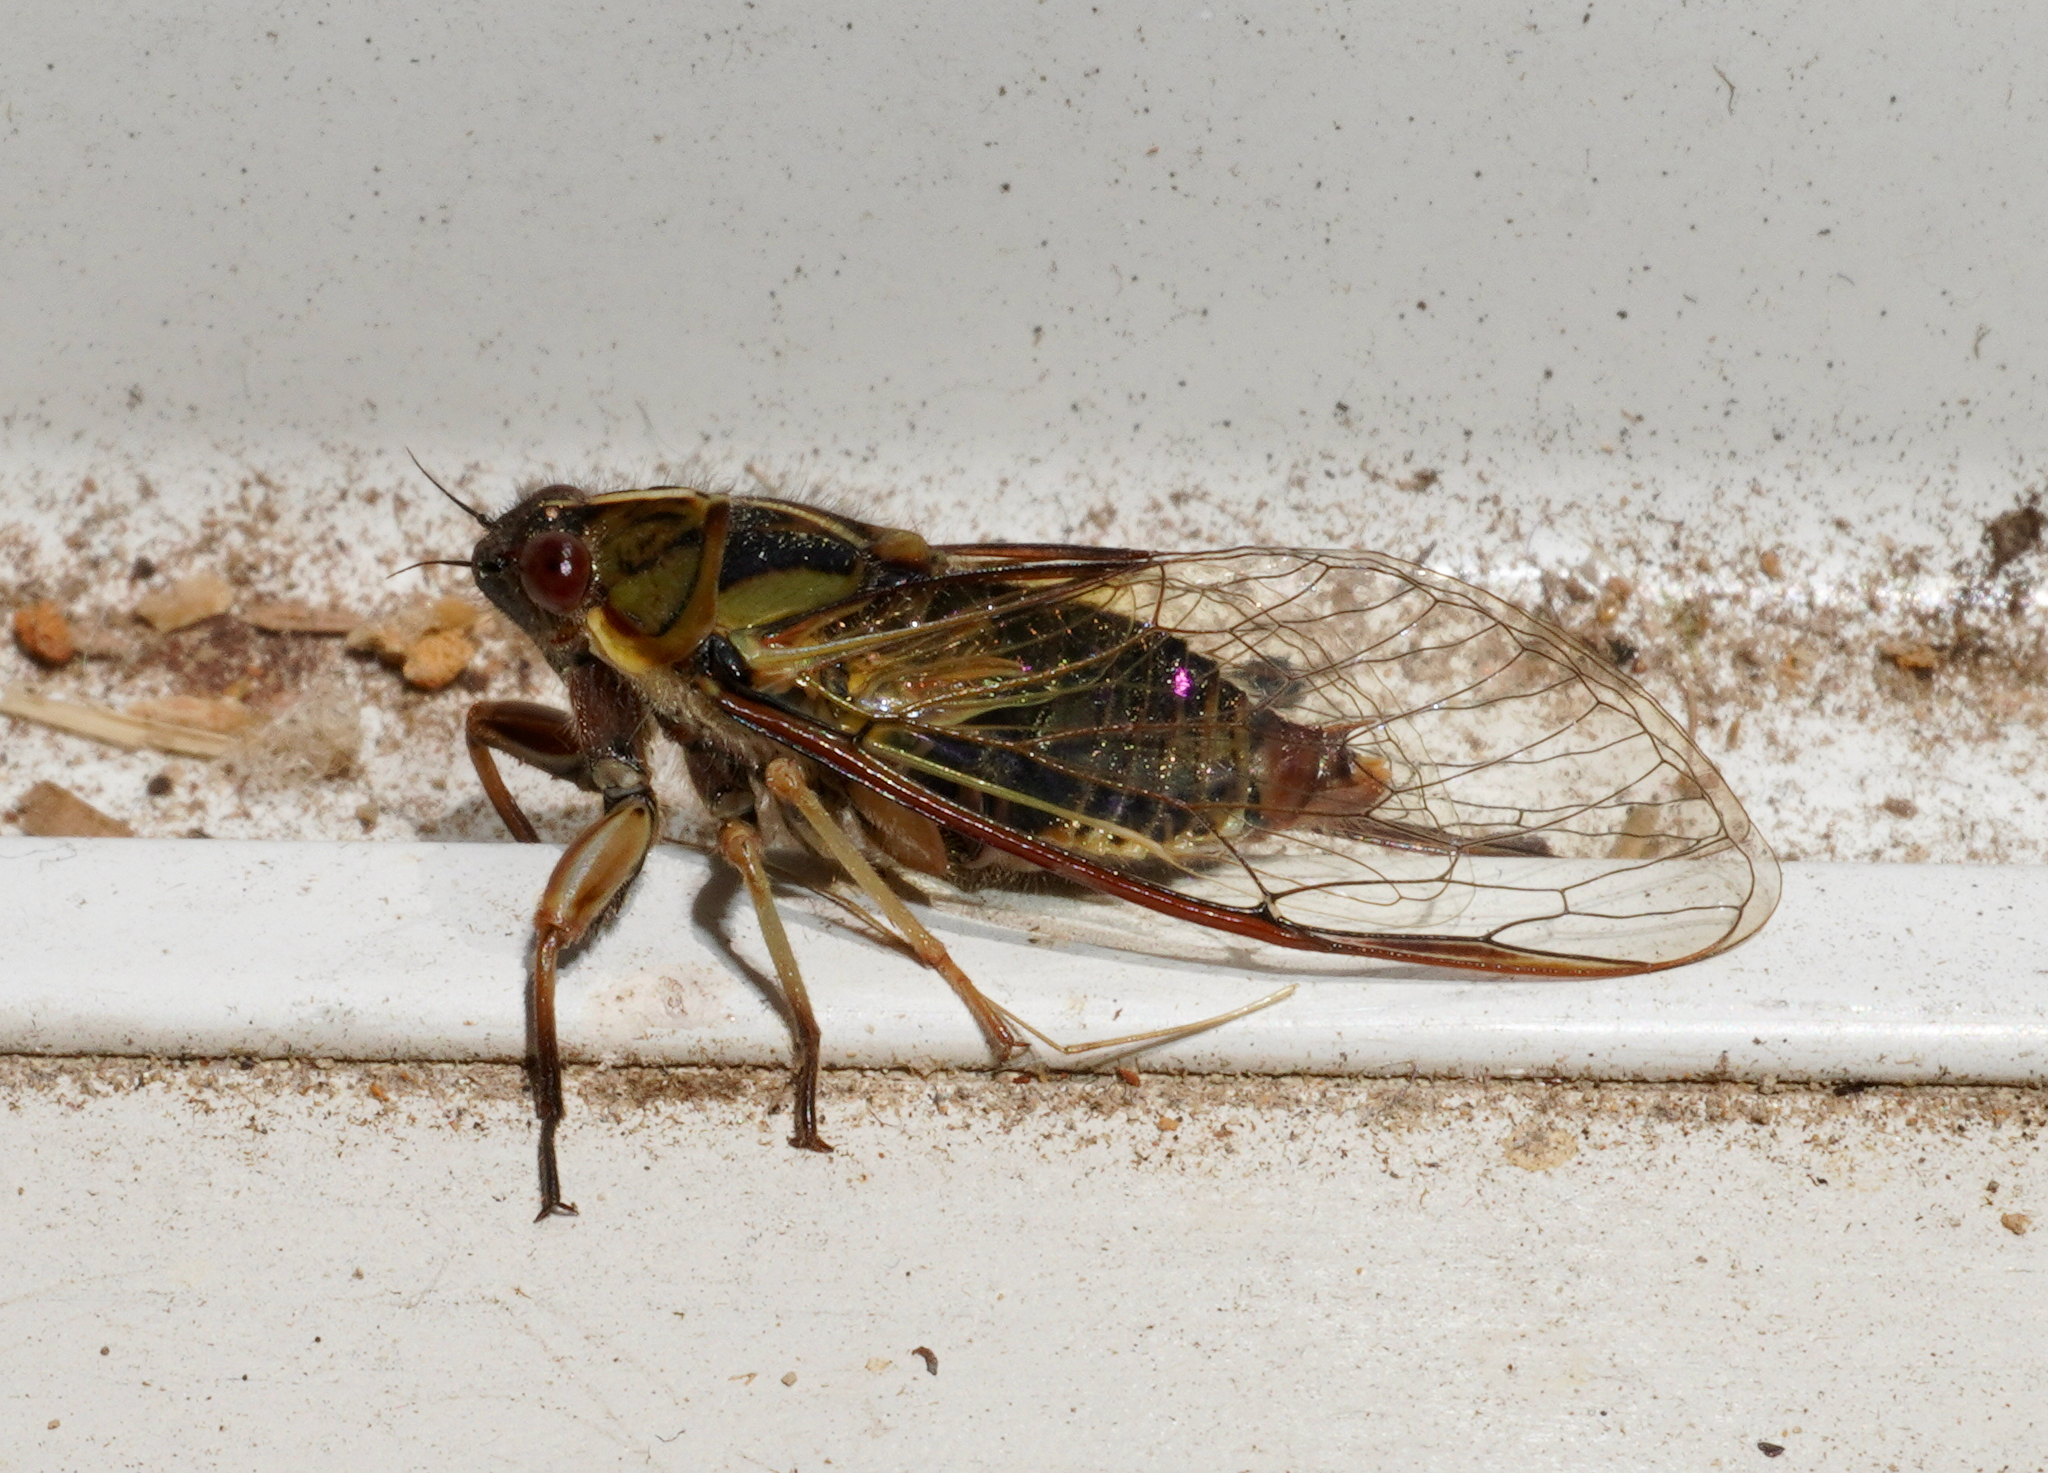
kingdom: Animalia
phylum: Arthropoda
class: Insecta
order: Hemiptera
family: Cicadidae
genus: Kikihia
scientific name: Kikihia muta
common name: Variable cicada
